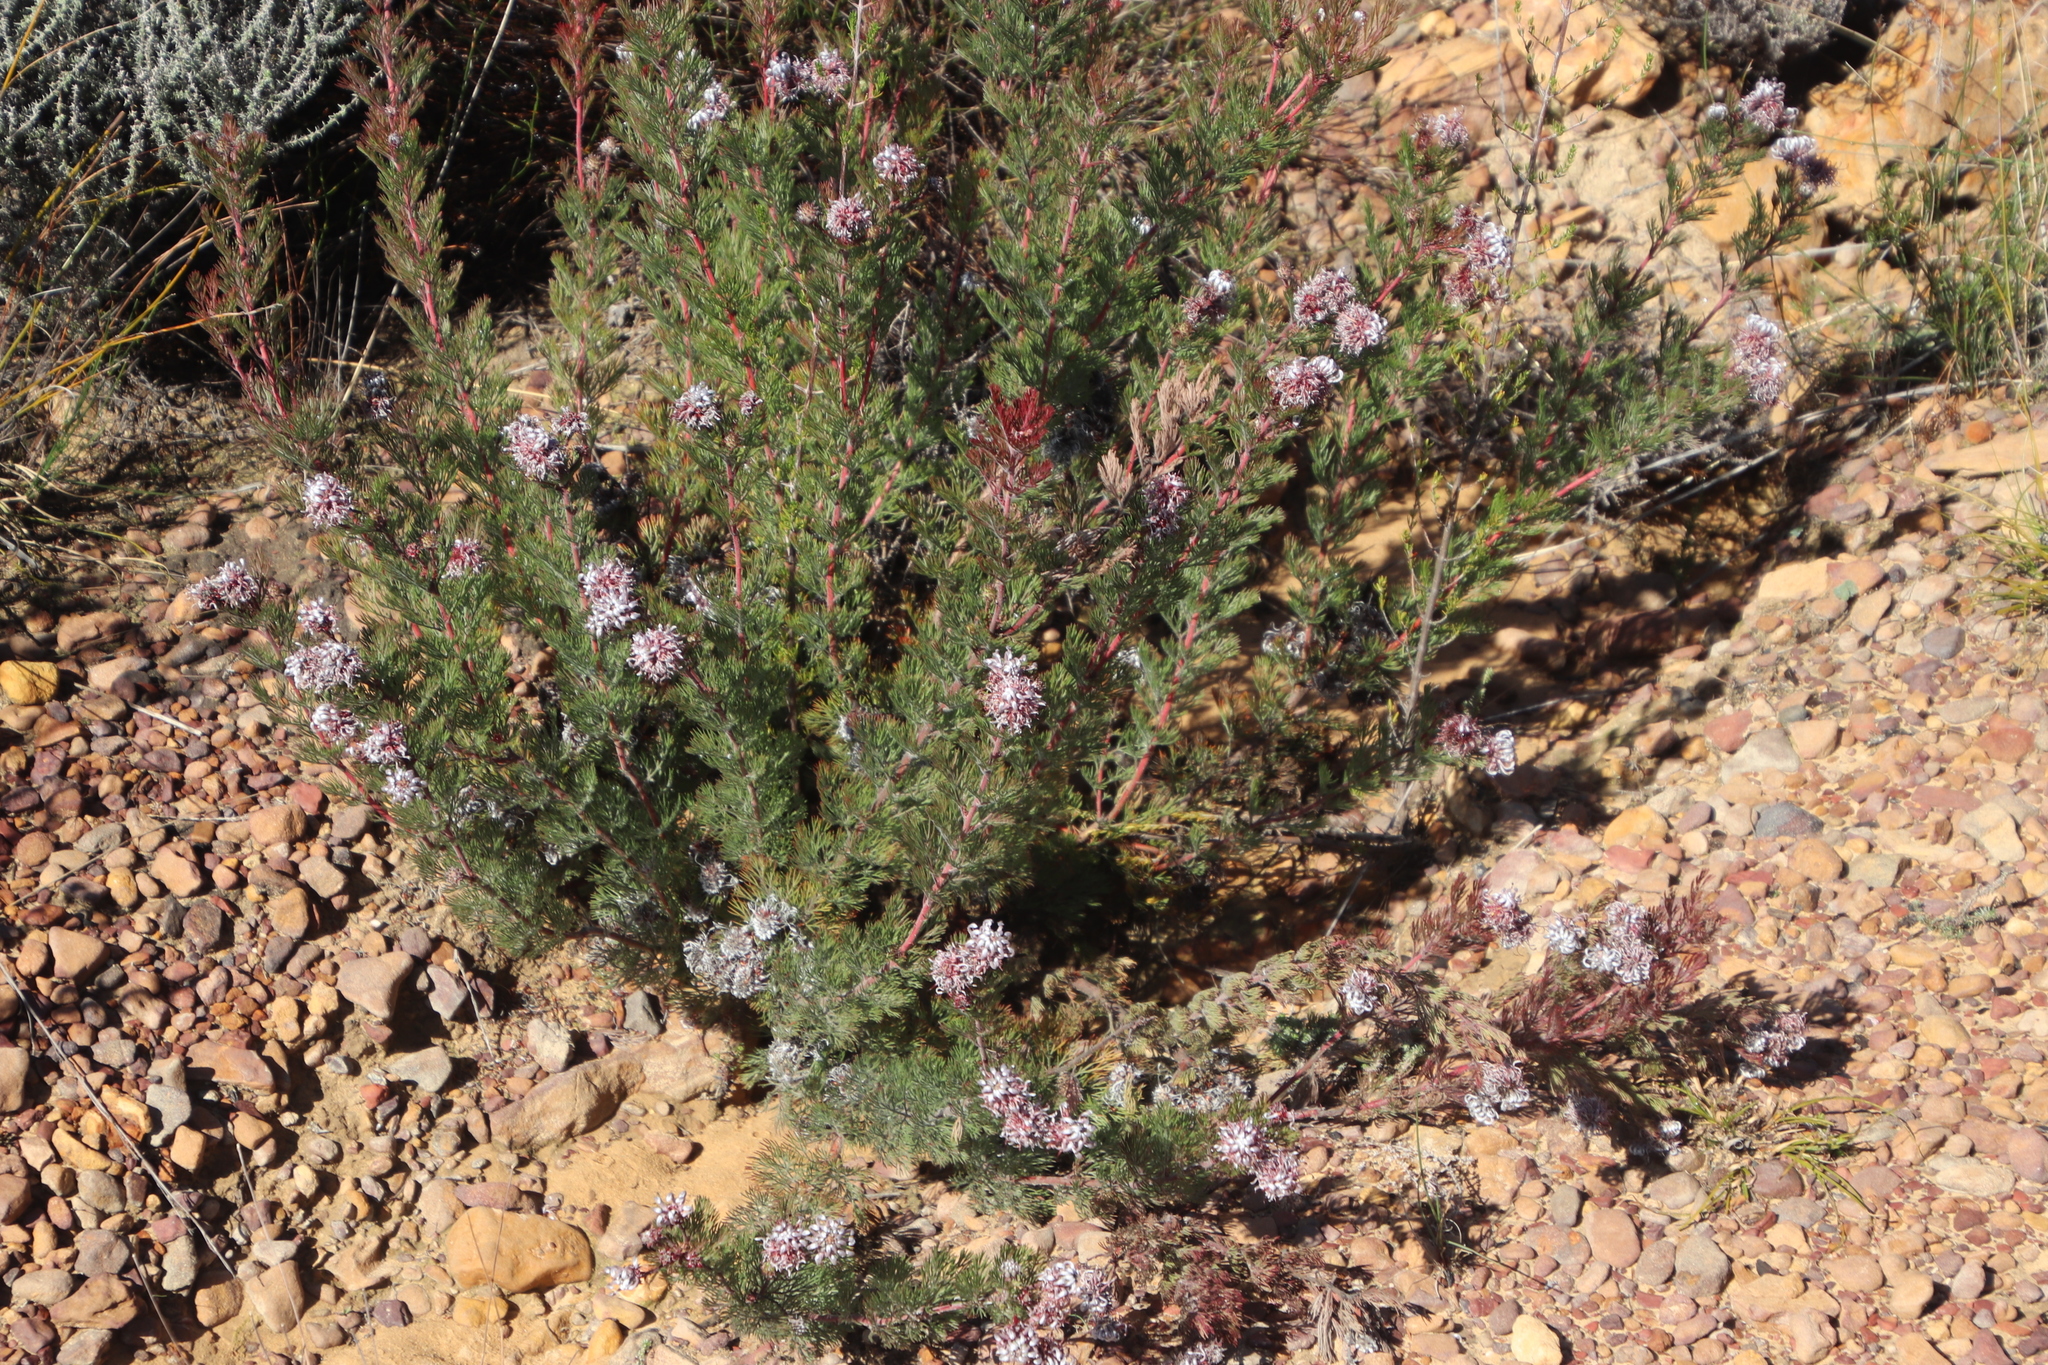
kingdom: Plantae
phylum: Tracheophyta
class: Magnoliopsida
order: Proteales
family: Proteaceae
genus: Serruria
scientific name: Serruria pedunculata
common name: Fan-leaf spiderhead
